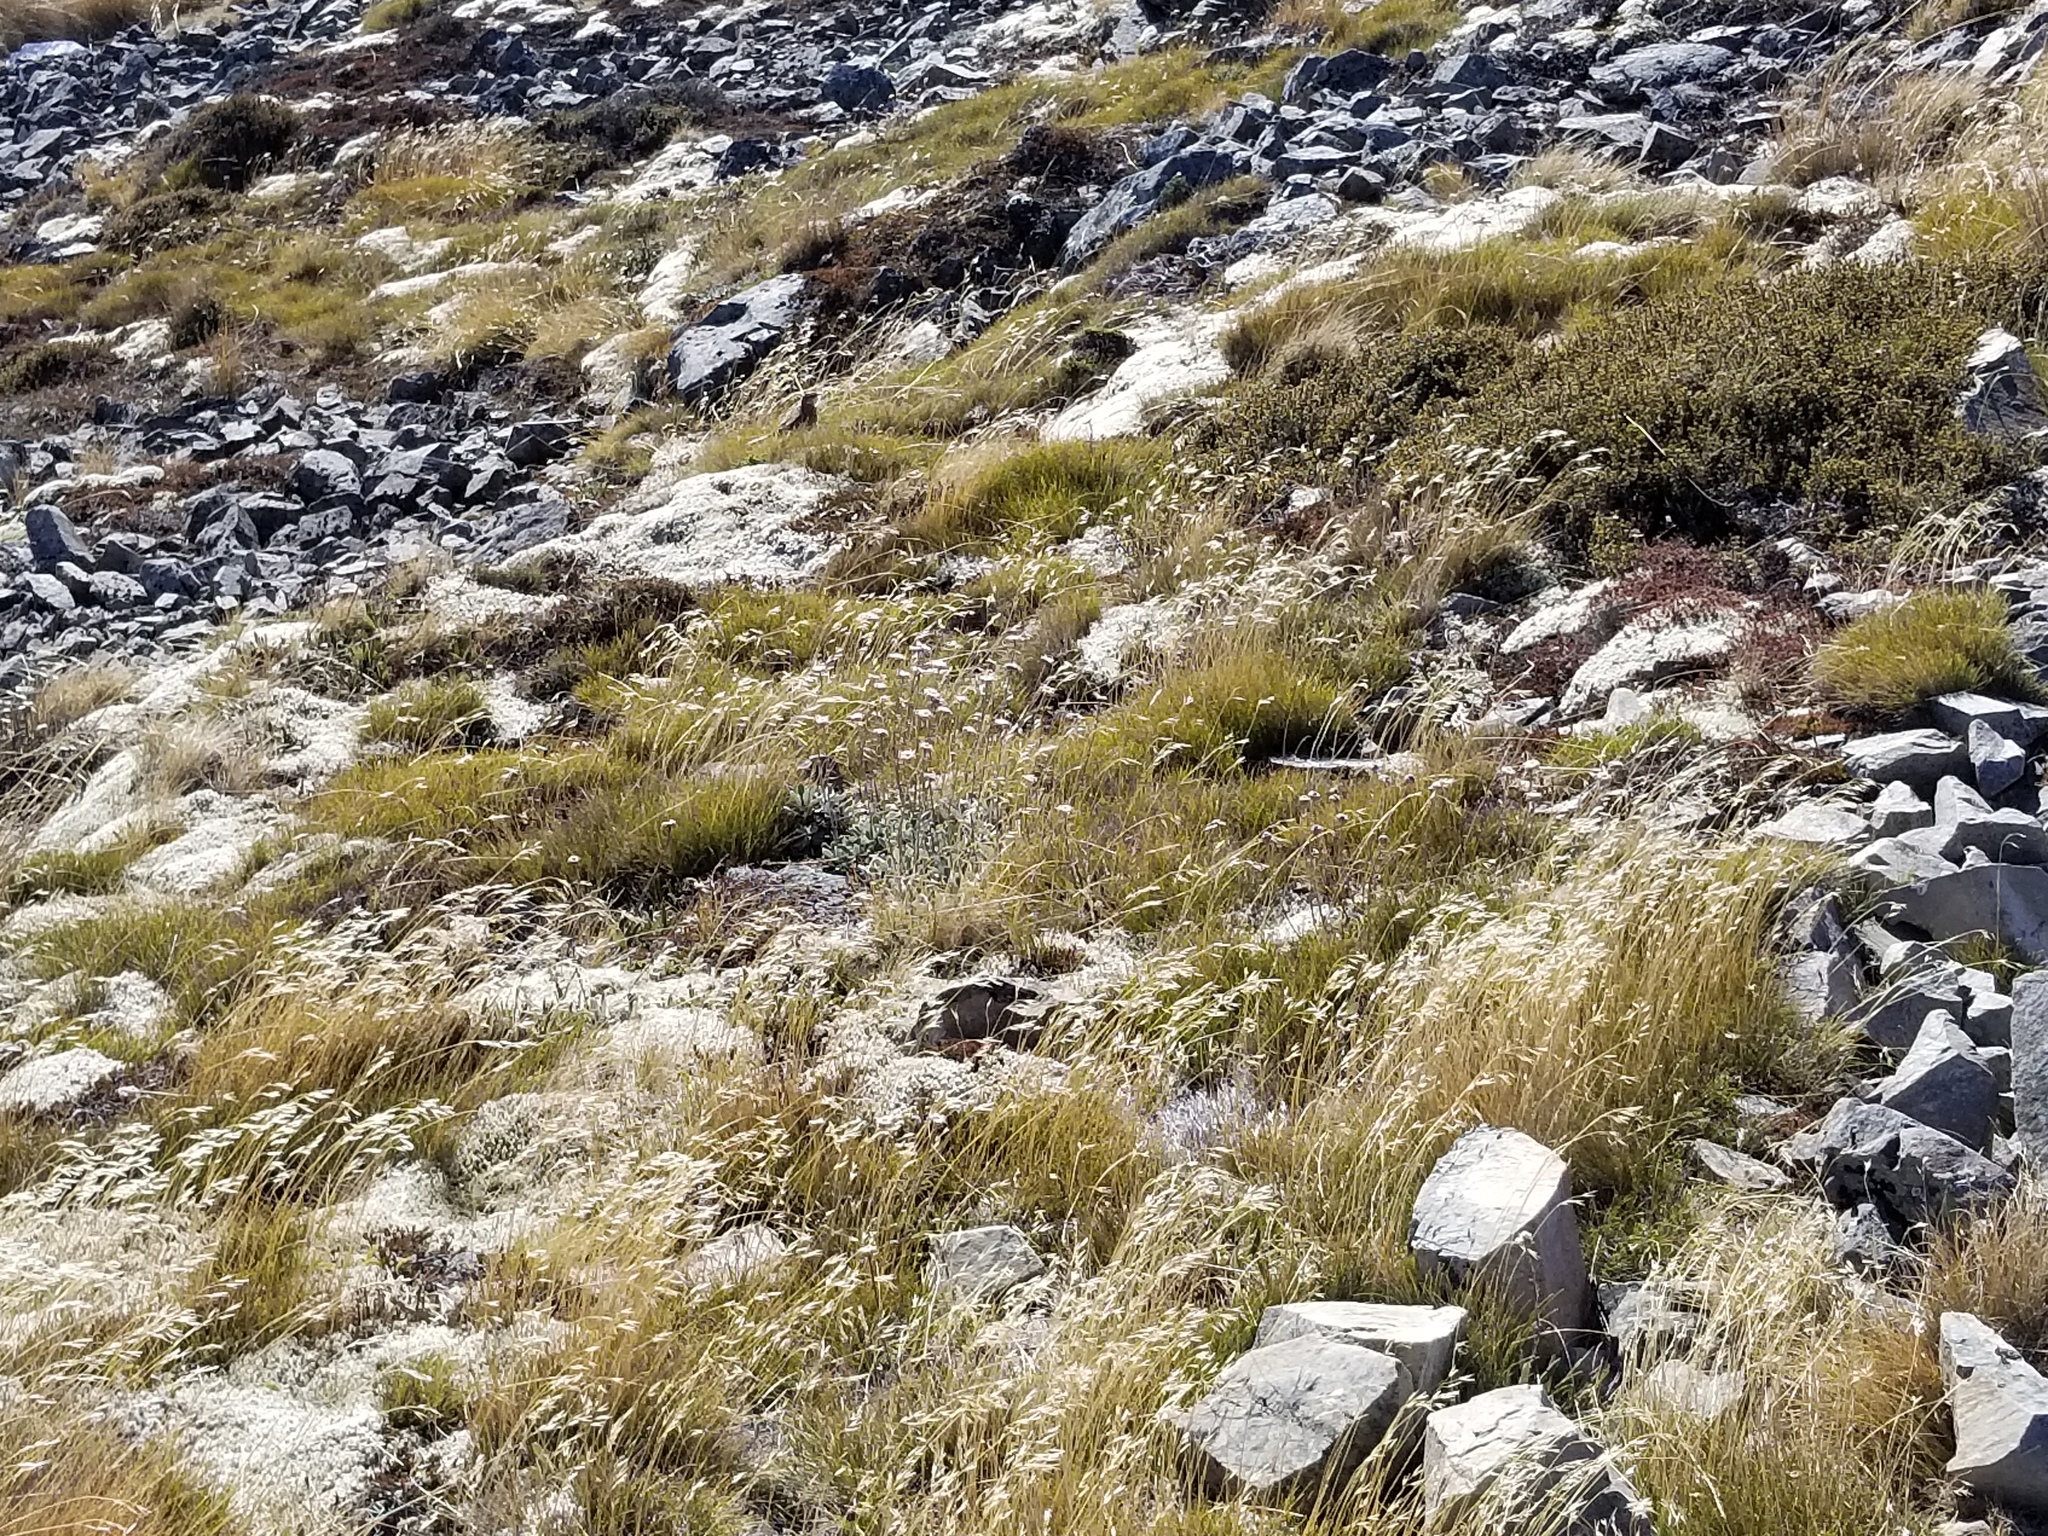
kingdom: Animalia
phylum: Chordata
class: Aves
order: Passeriformes
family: Motacillidae
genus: Anthus
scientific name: Anthus novaeseelandiae
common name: New zealand pipit
